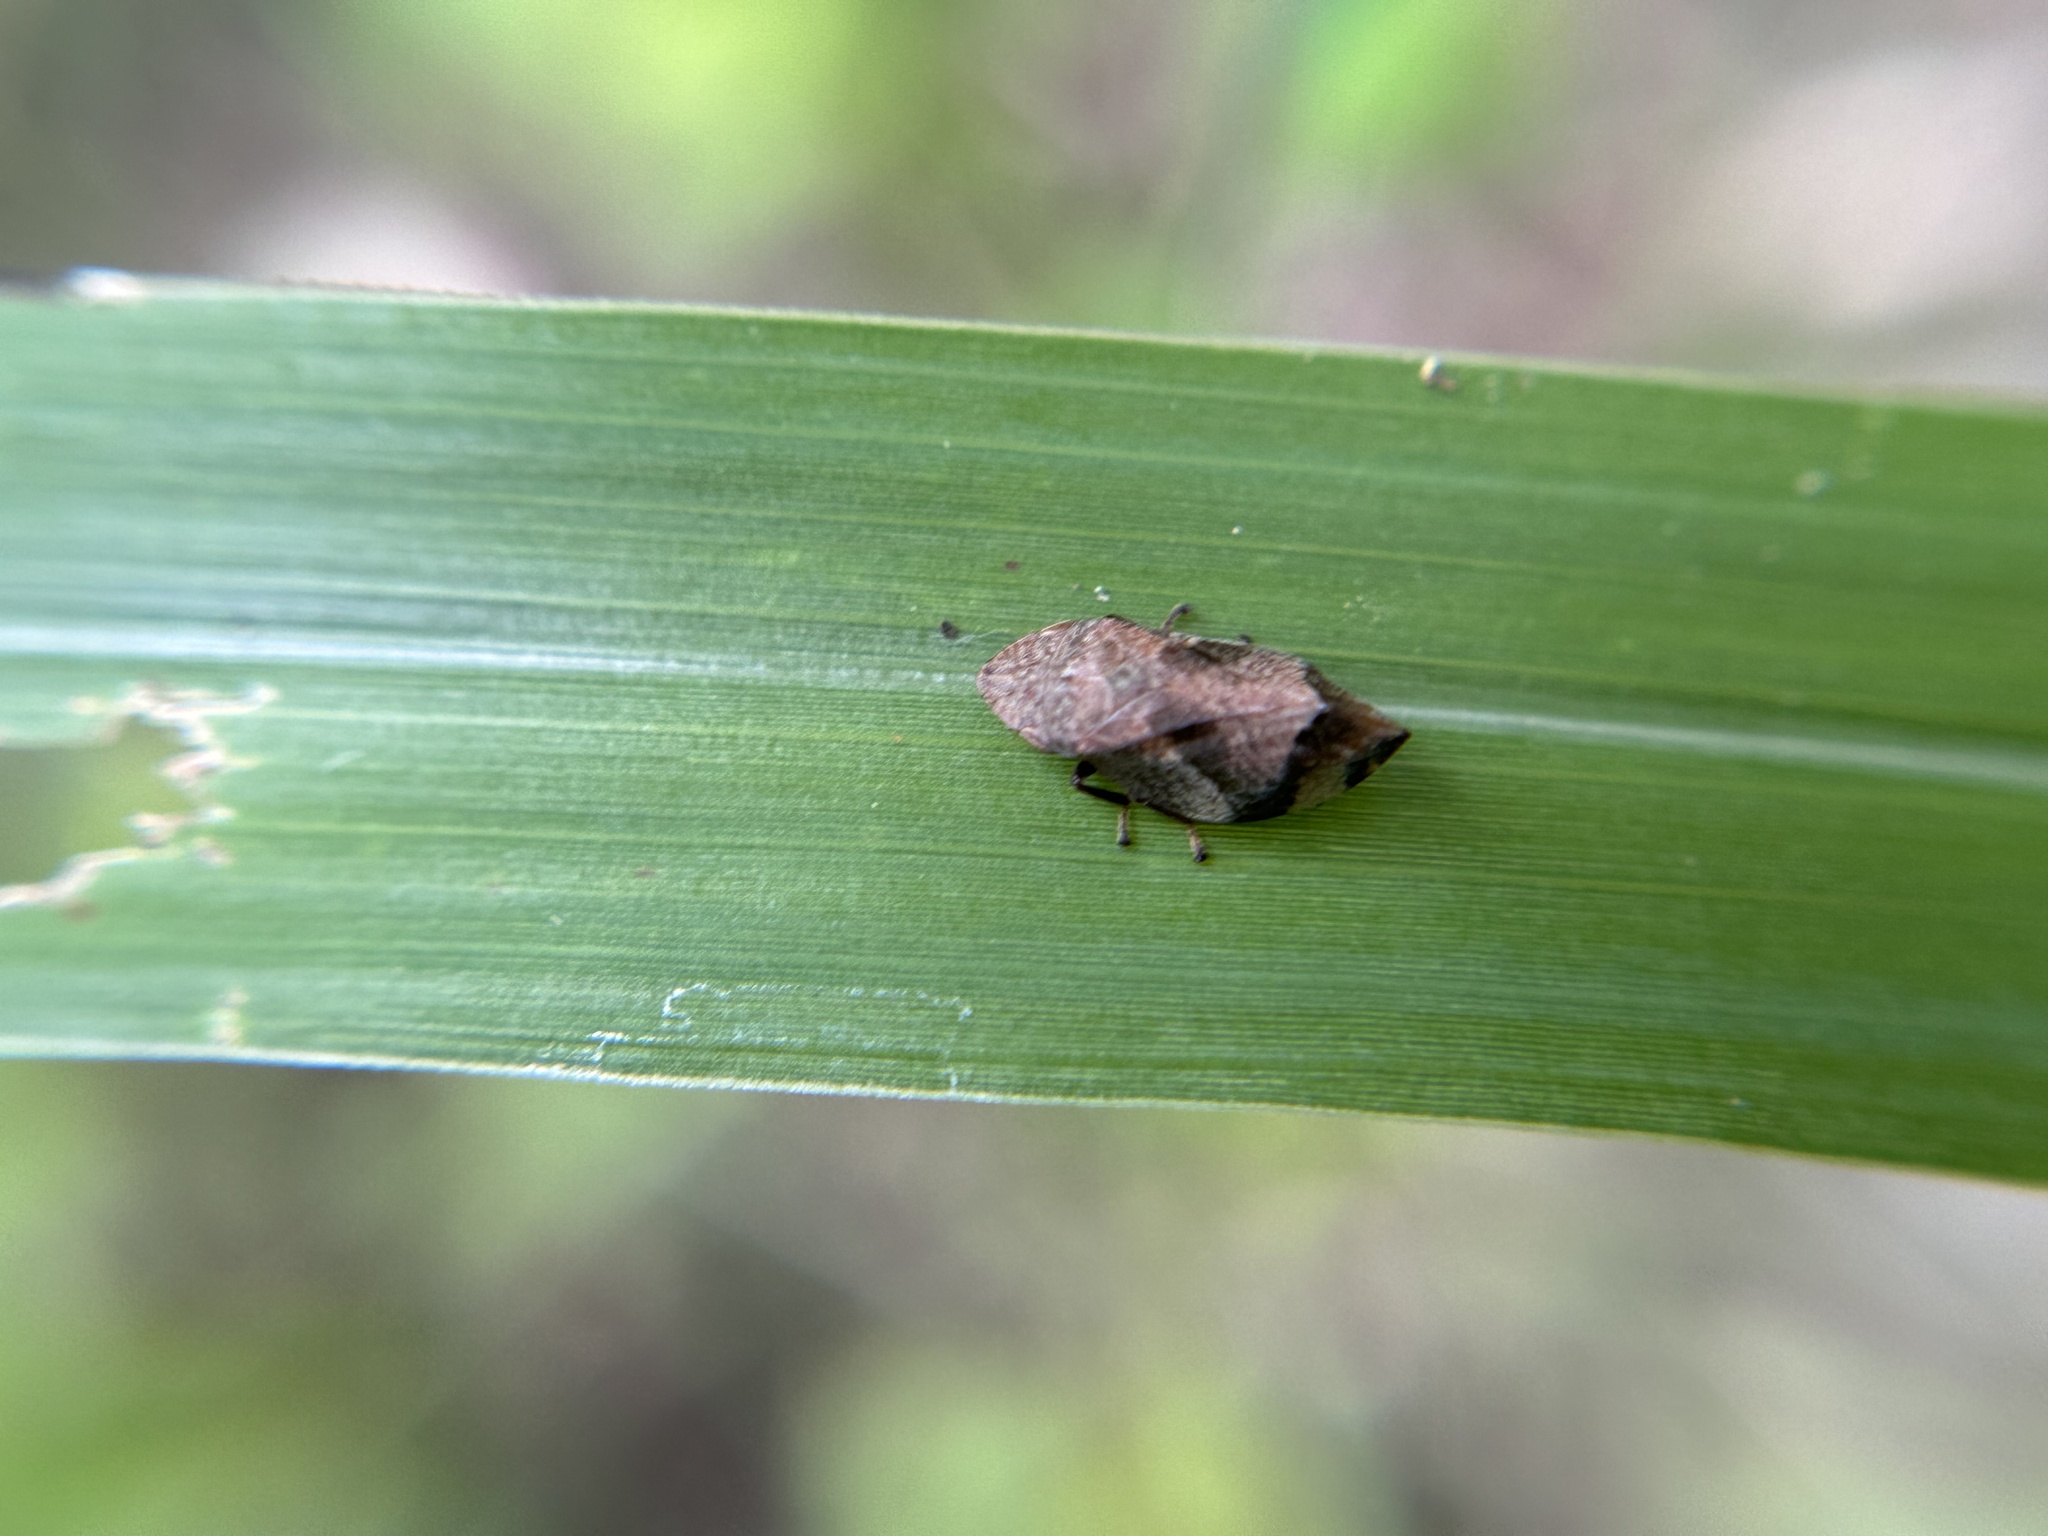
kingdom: Animalia
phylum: Arthropoda
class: Insecta
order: Hemiptera
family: Aphrophoridae
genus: Lepyronia
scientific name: Lepyronia quadrangularis
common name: Diamond-backed spittlebug
